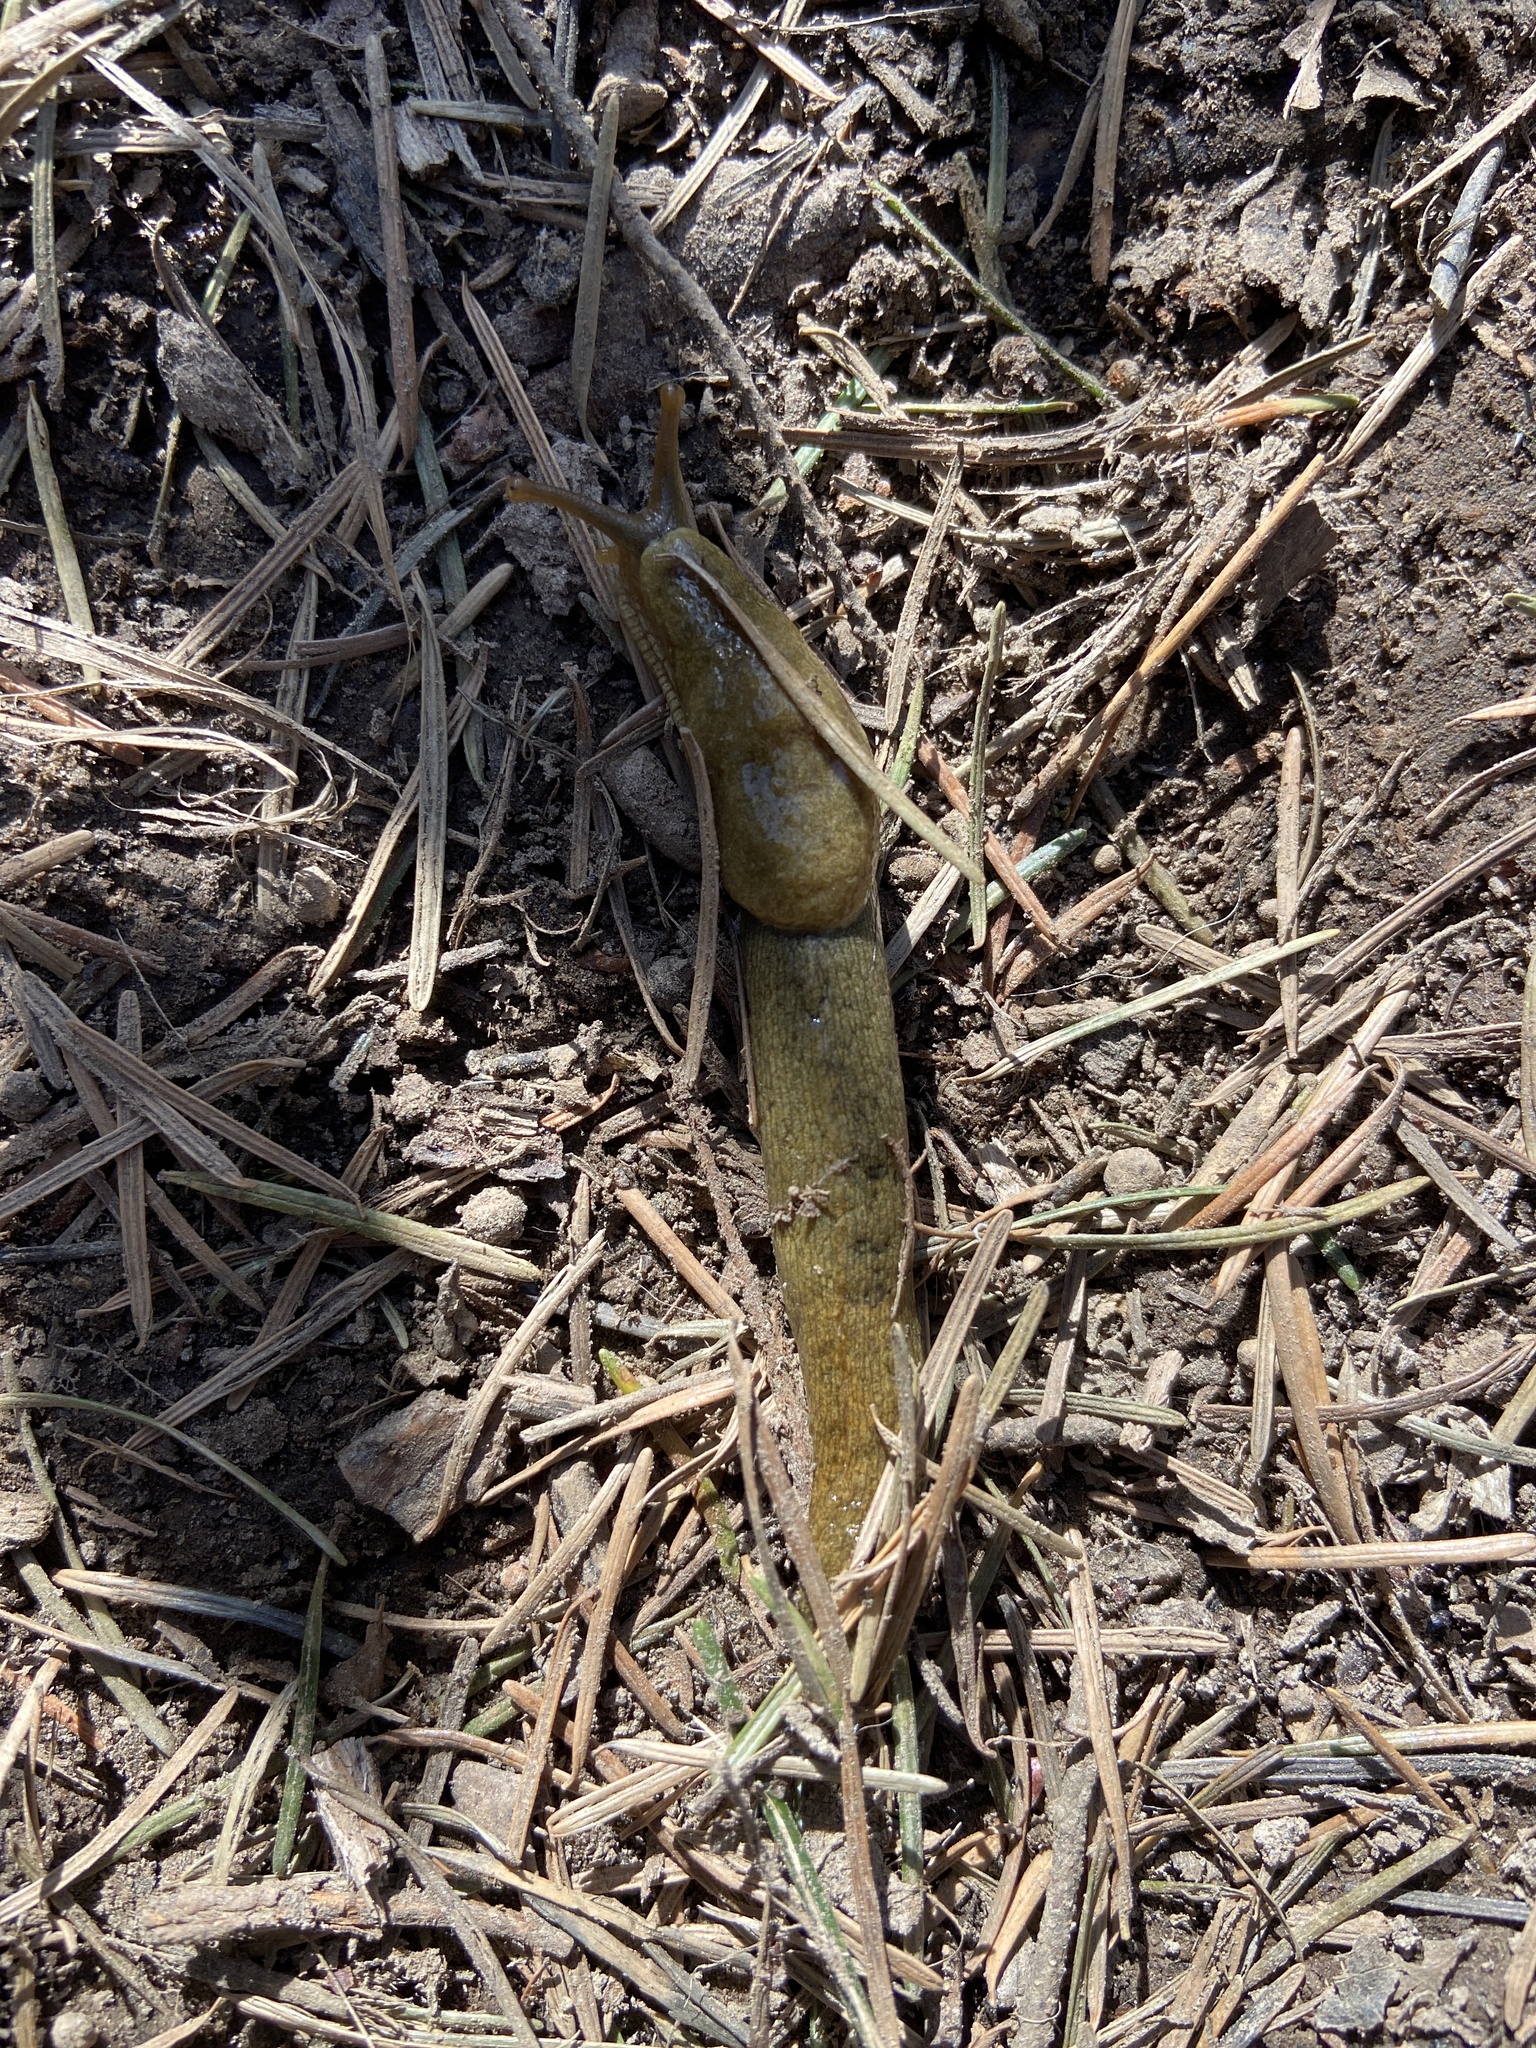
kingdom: Animalia
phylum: Mollusca
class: Gastropoda
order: Stylommatophora
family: Ariolimacidae
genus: Ariolimax
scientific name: Ariolimax columbianus
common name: Pacific banana slug
